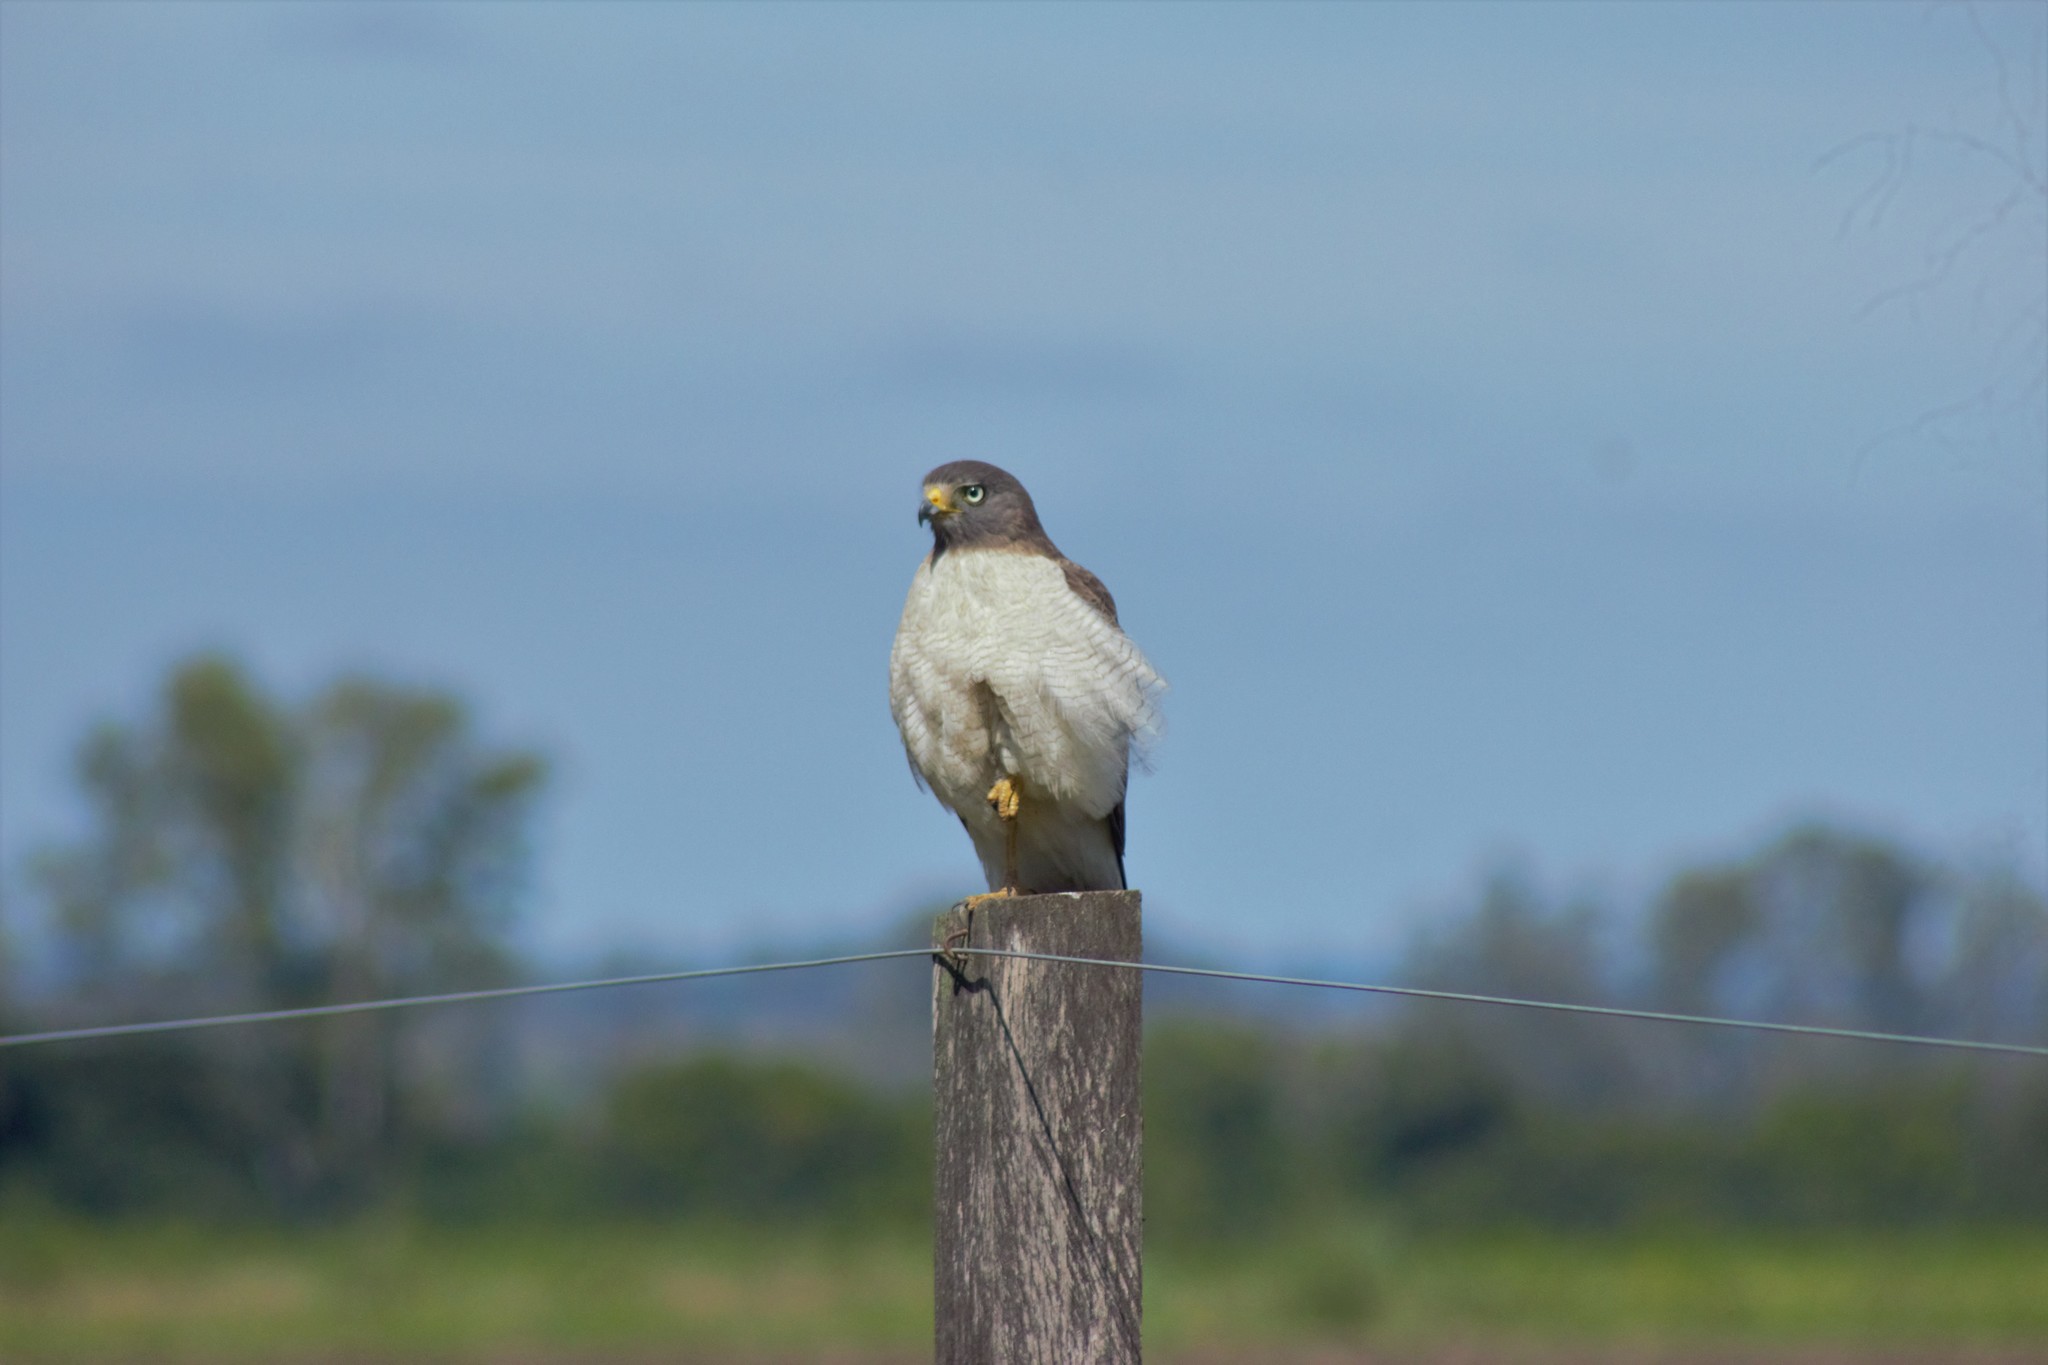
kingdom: Animalia
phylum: Chordata
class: Aves
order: Accipitriformes
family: Accipitridae
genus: Rupornis
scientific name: Rupornis magnirostris
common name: Roadside hawk
